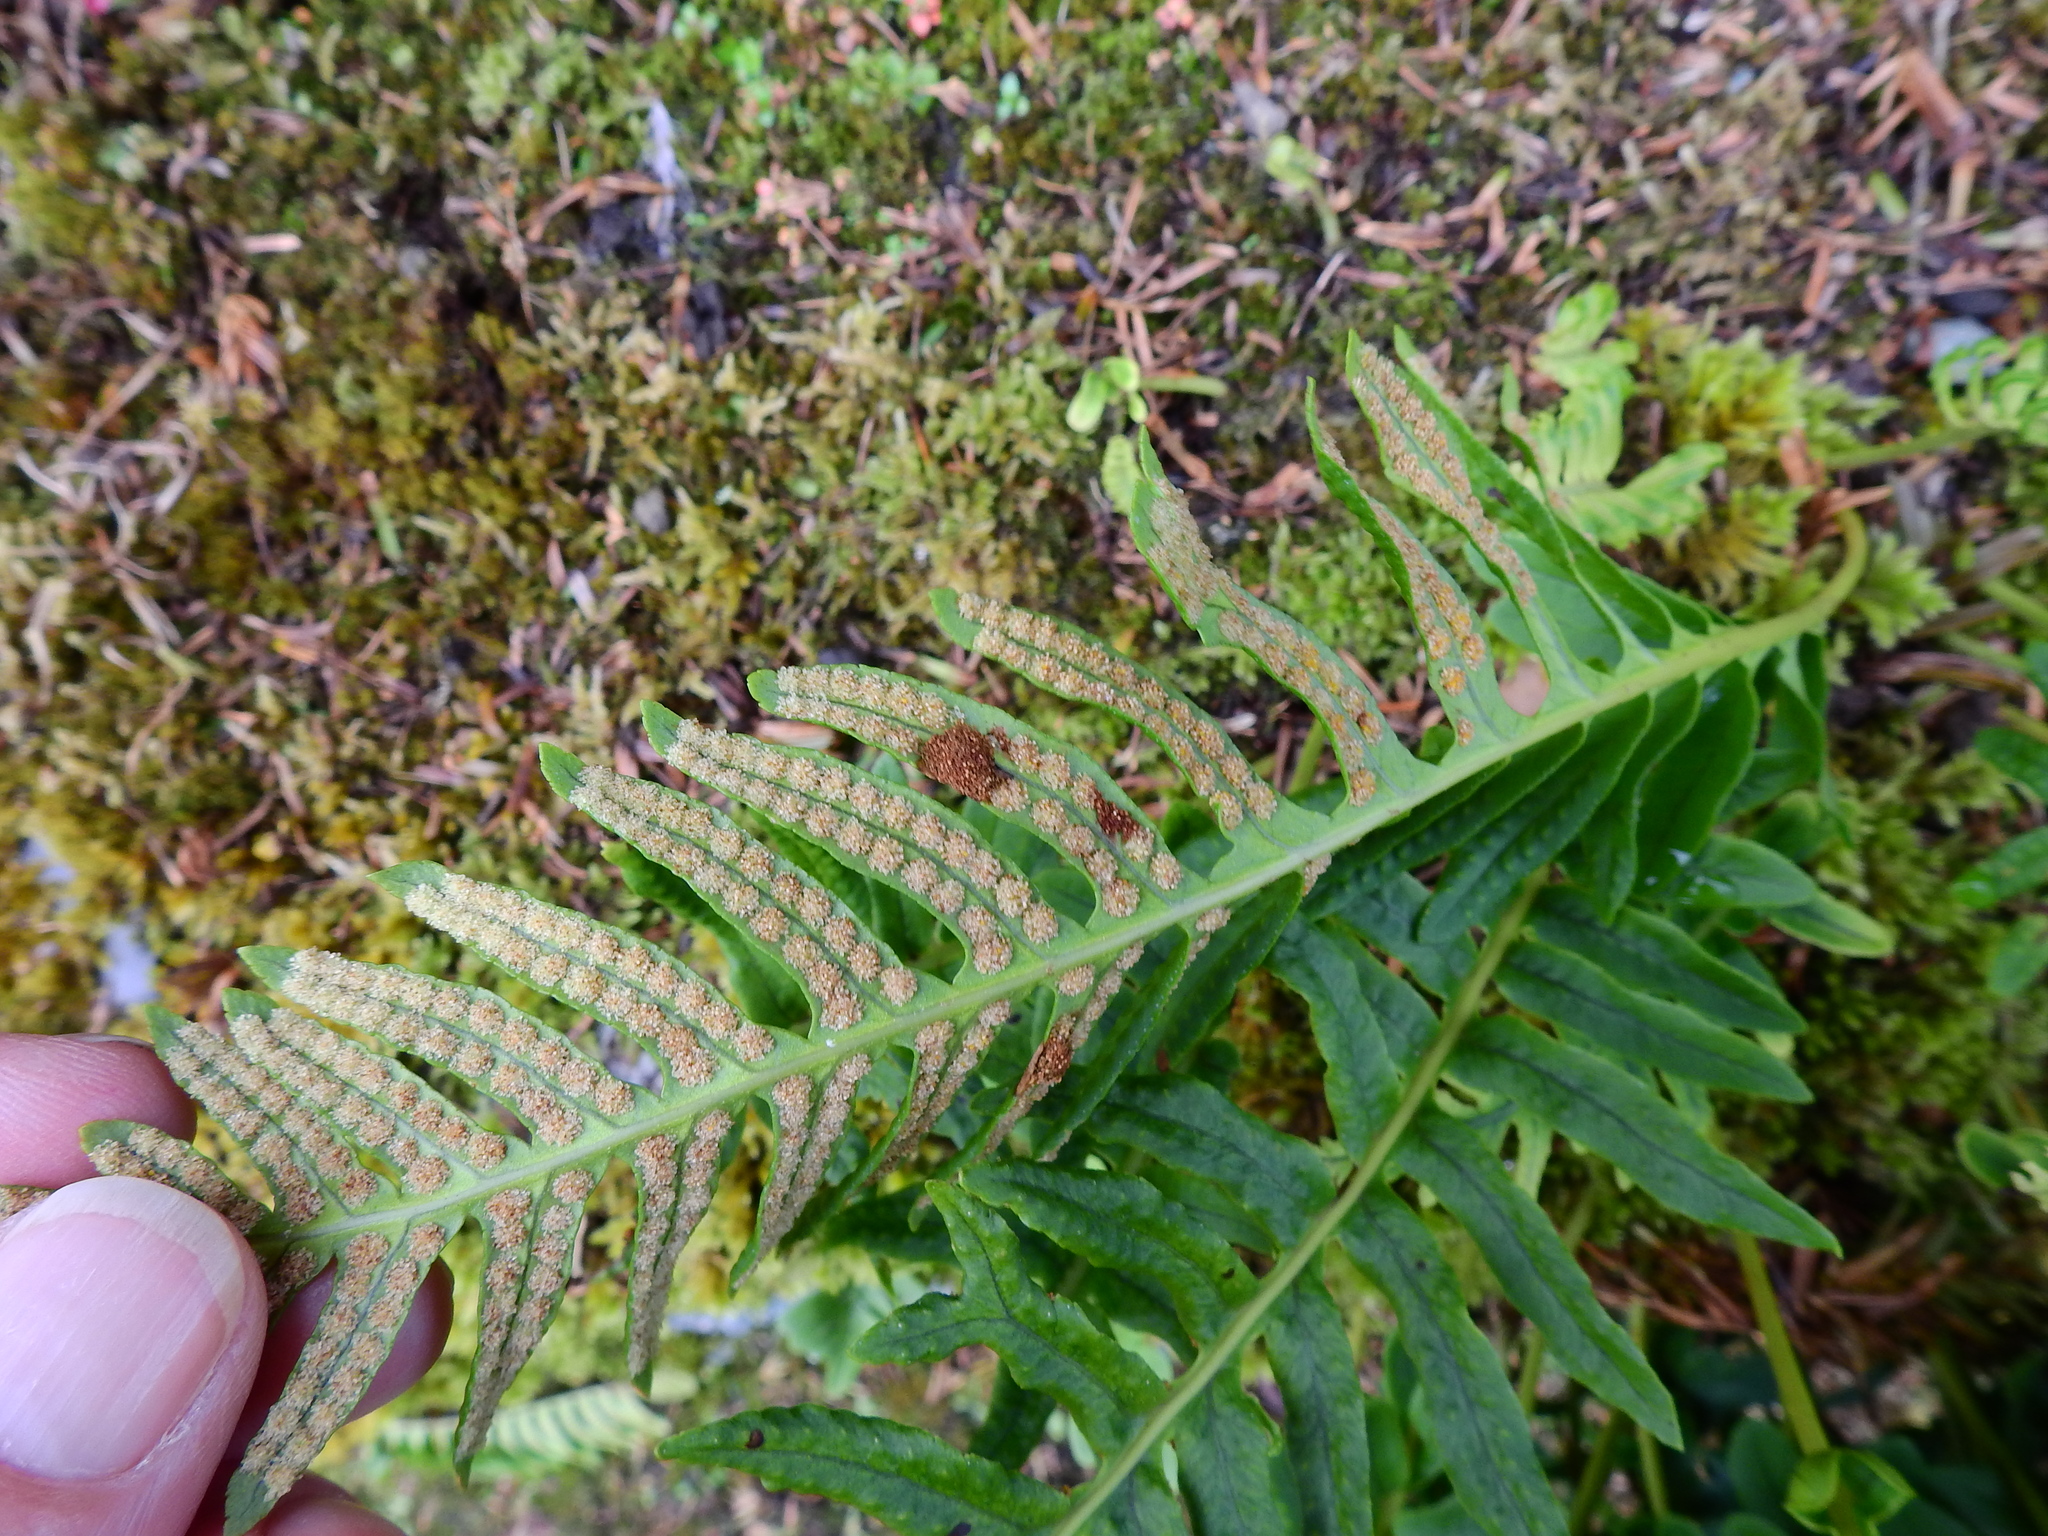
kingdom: Animalia
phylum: Arthropoda
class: Insecta
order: Lepidoptera
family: Tineidae
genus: Psychoides
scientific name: Psychoides filicivora
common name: Fern smut
